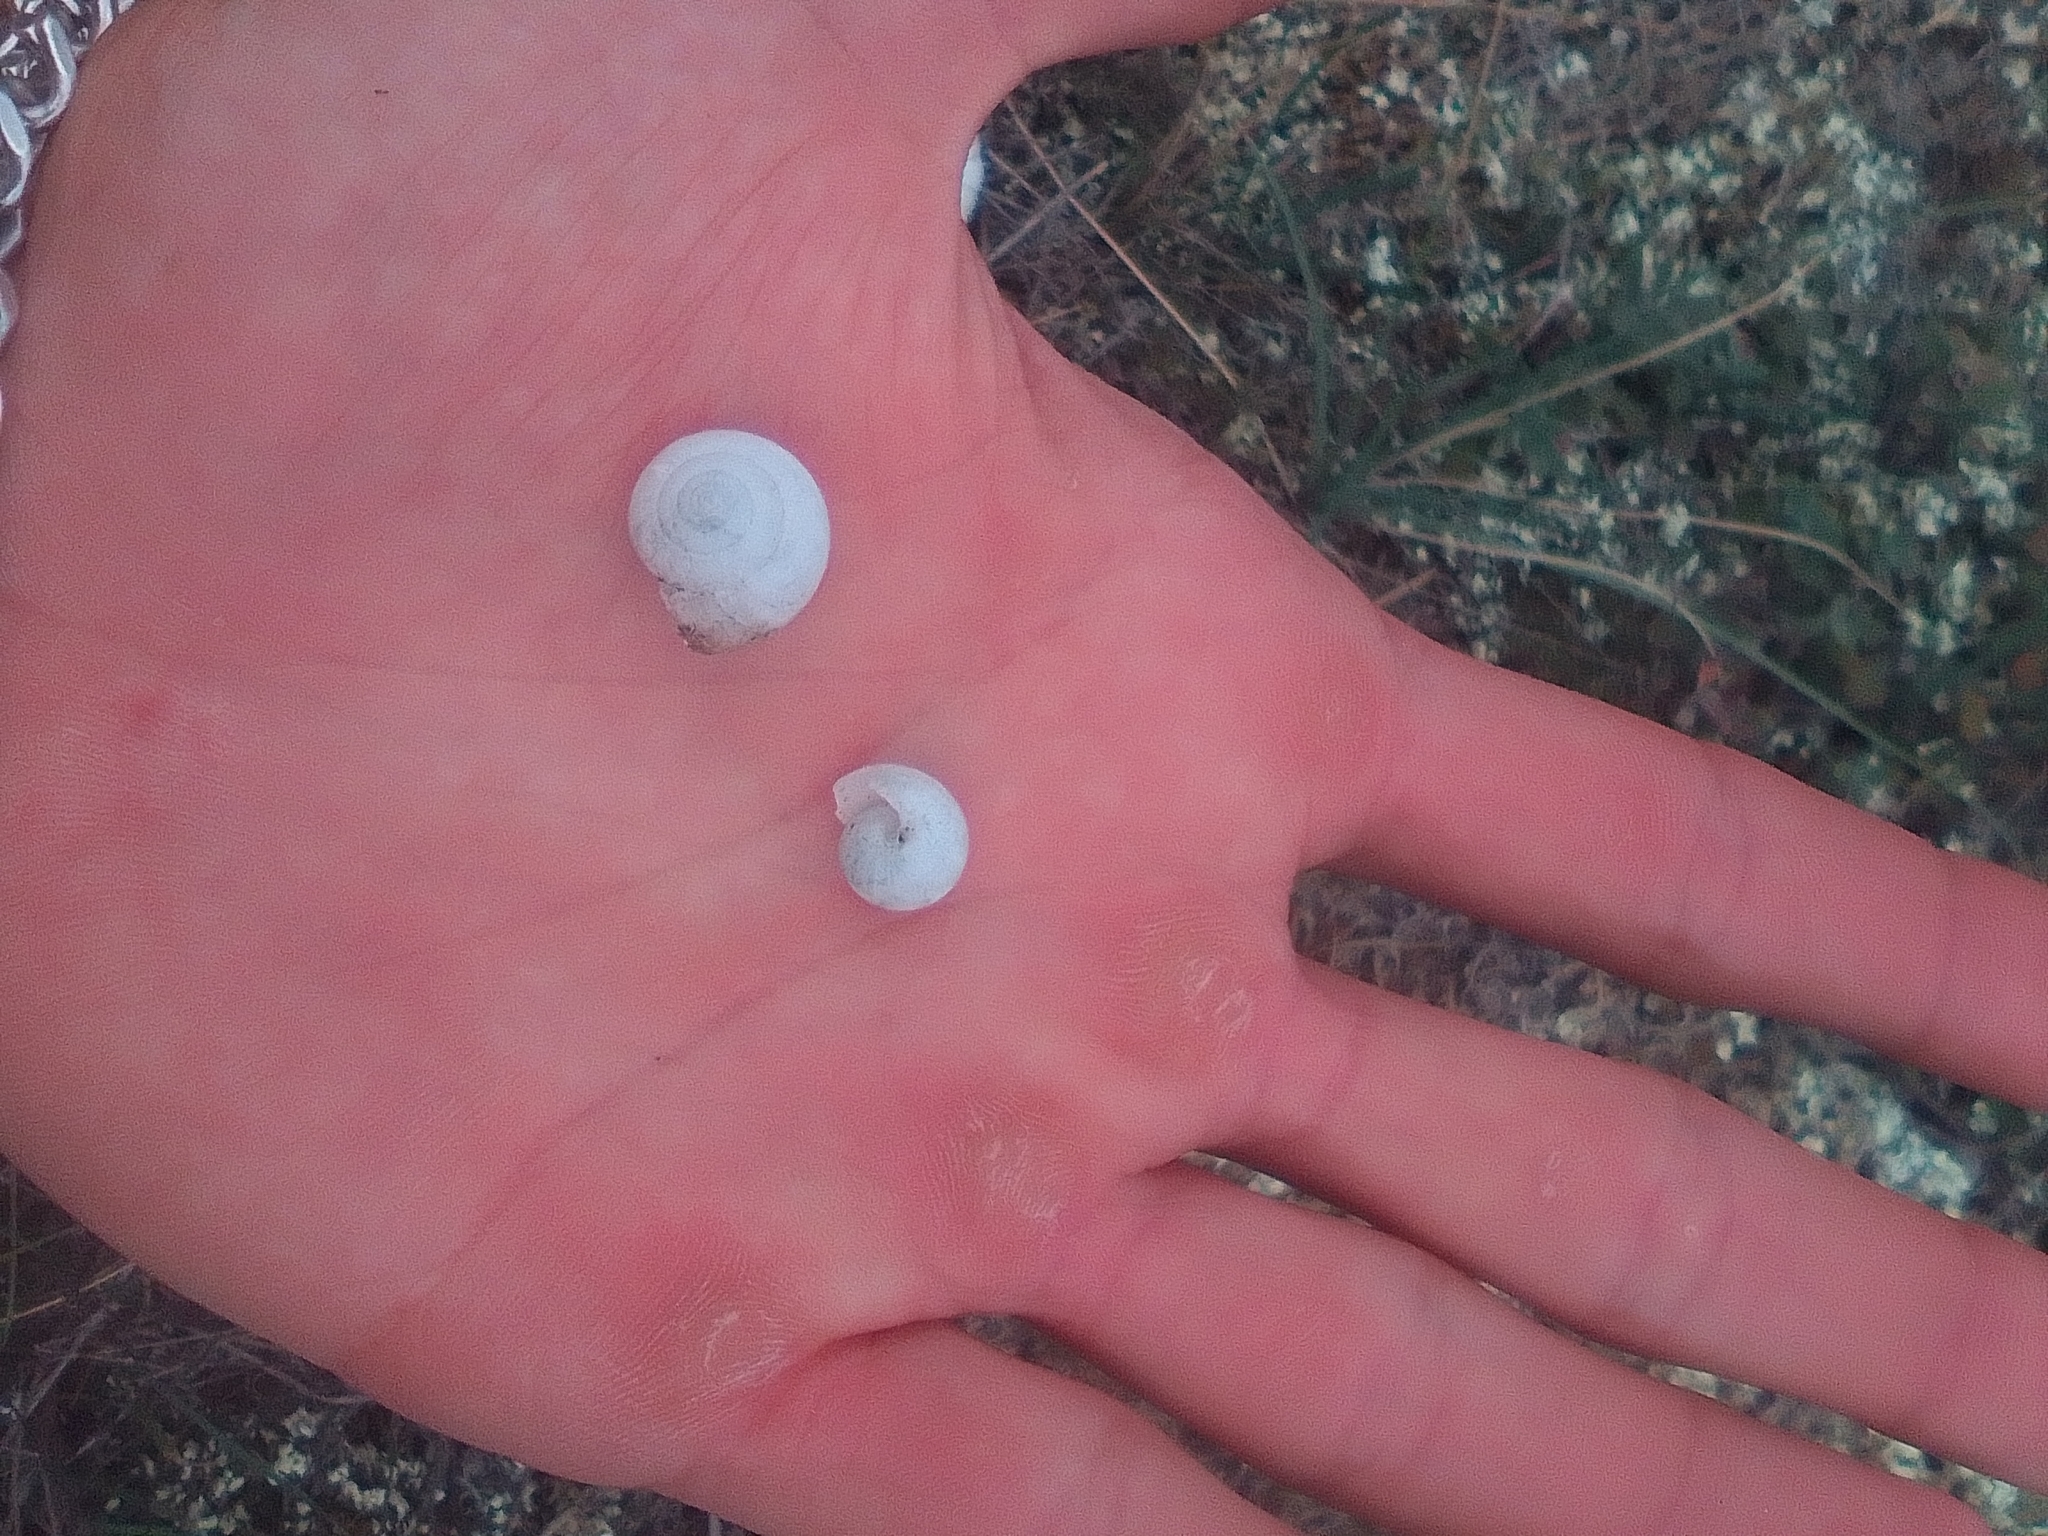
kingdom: Animalia
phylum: Mollusca
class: Gastropoda
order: Stylommatophora
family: Hygromiidae
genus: Monacha
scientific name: Monacha fruticola
